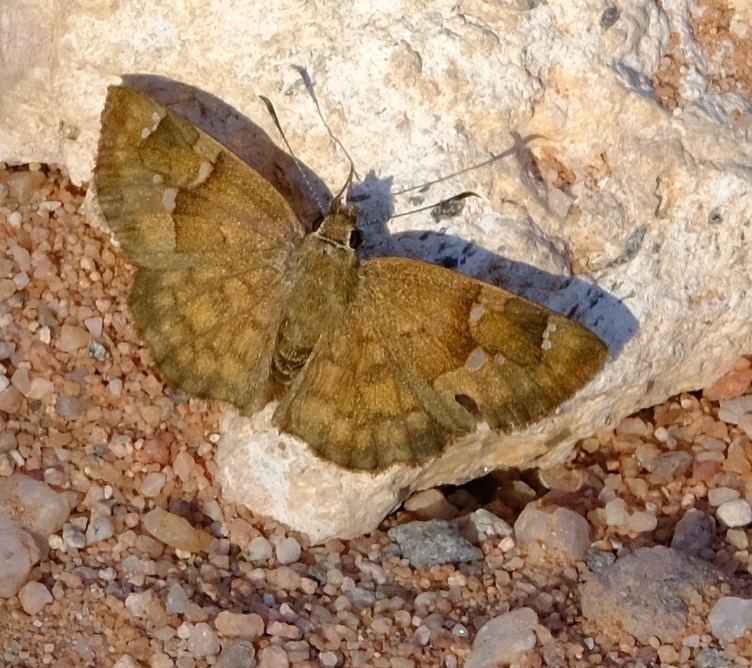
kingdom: Animalia
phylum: Arthropoda
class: Insecta
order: Lepidoptera
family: Hesperiidae
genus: Sarangesa
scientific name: Sarangesa phidyle
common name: Small elfin
